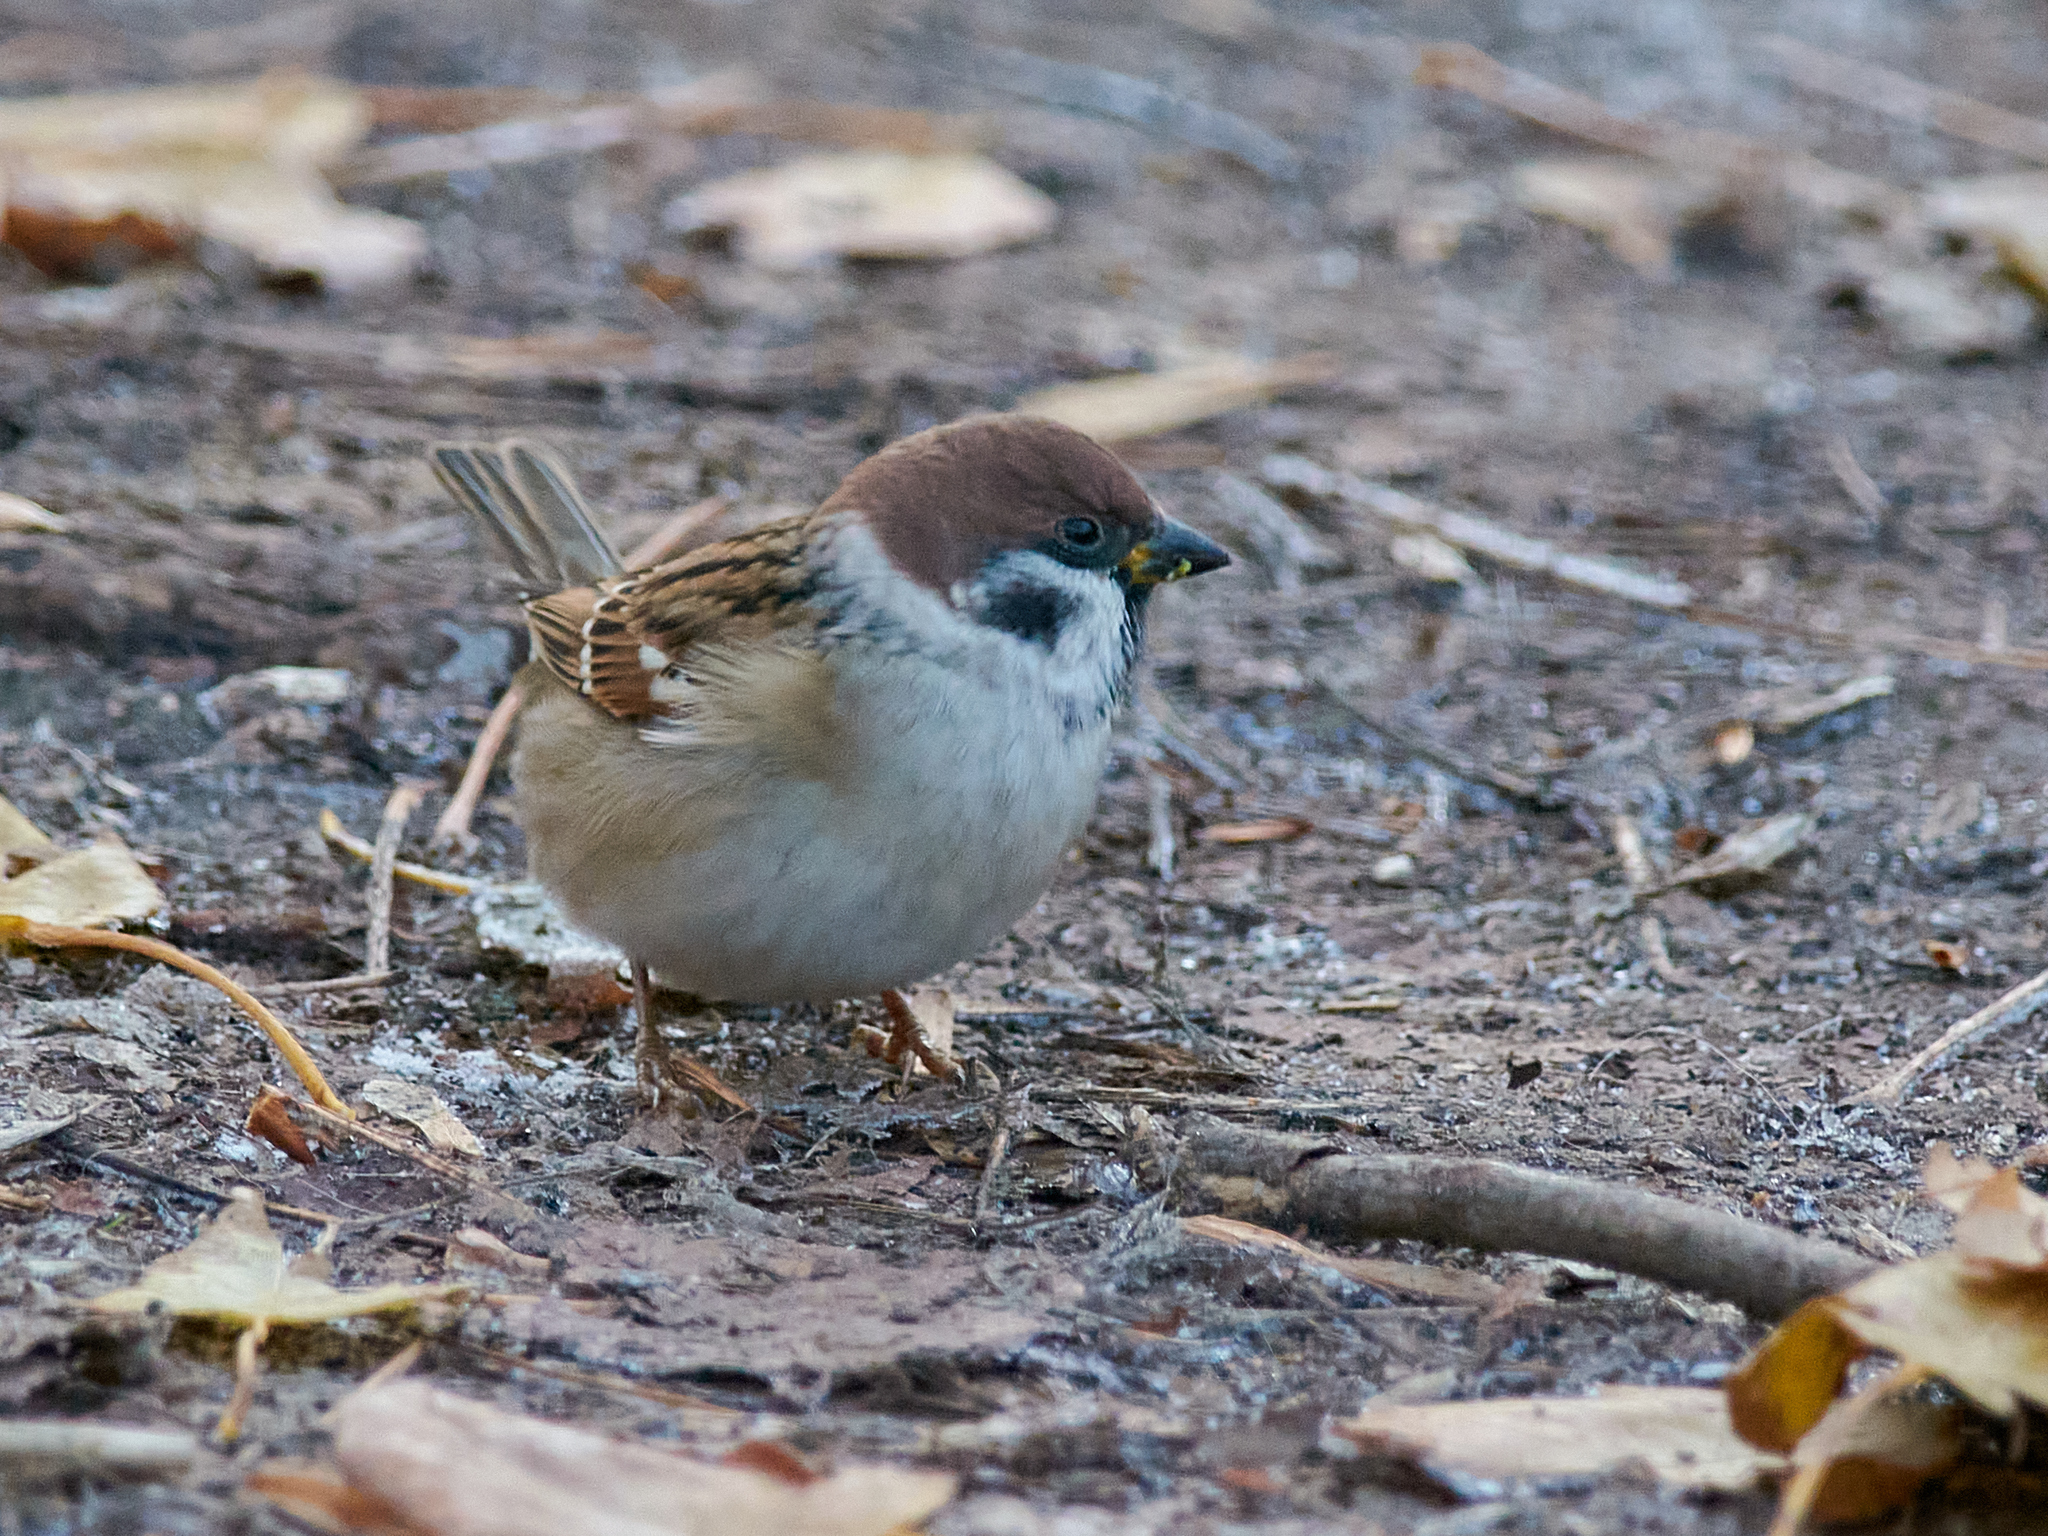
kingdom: Animalia
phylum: Chordata
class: Aves
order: Passeriformes
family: Passeridae
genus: Passer
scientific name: Passer montanus
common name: Eurasian tree sparrow
